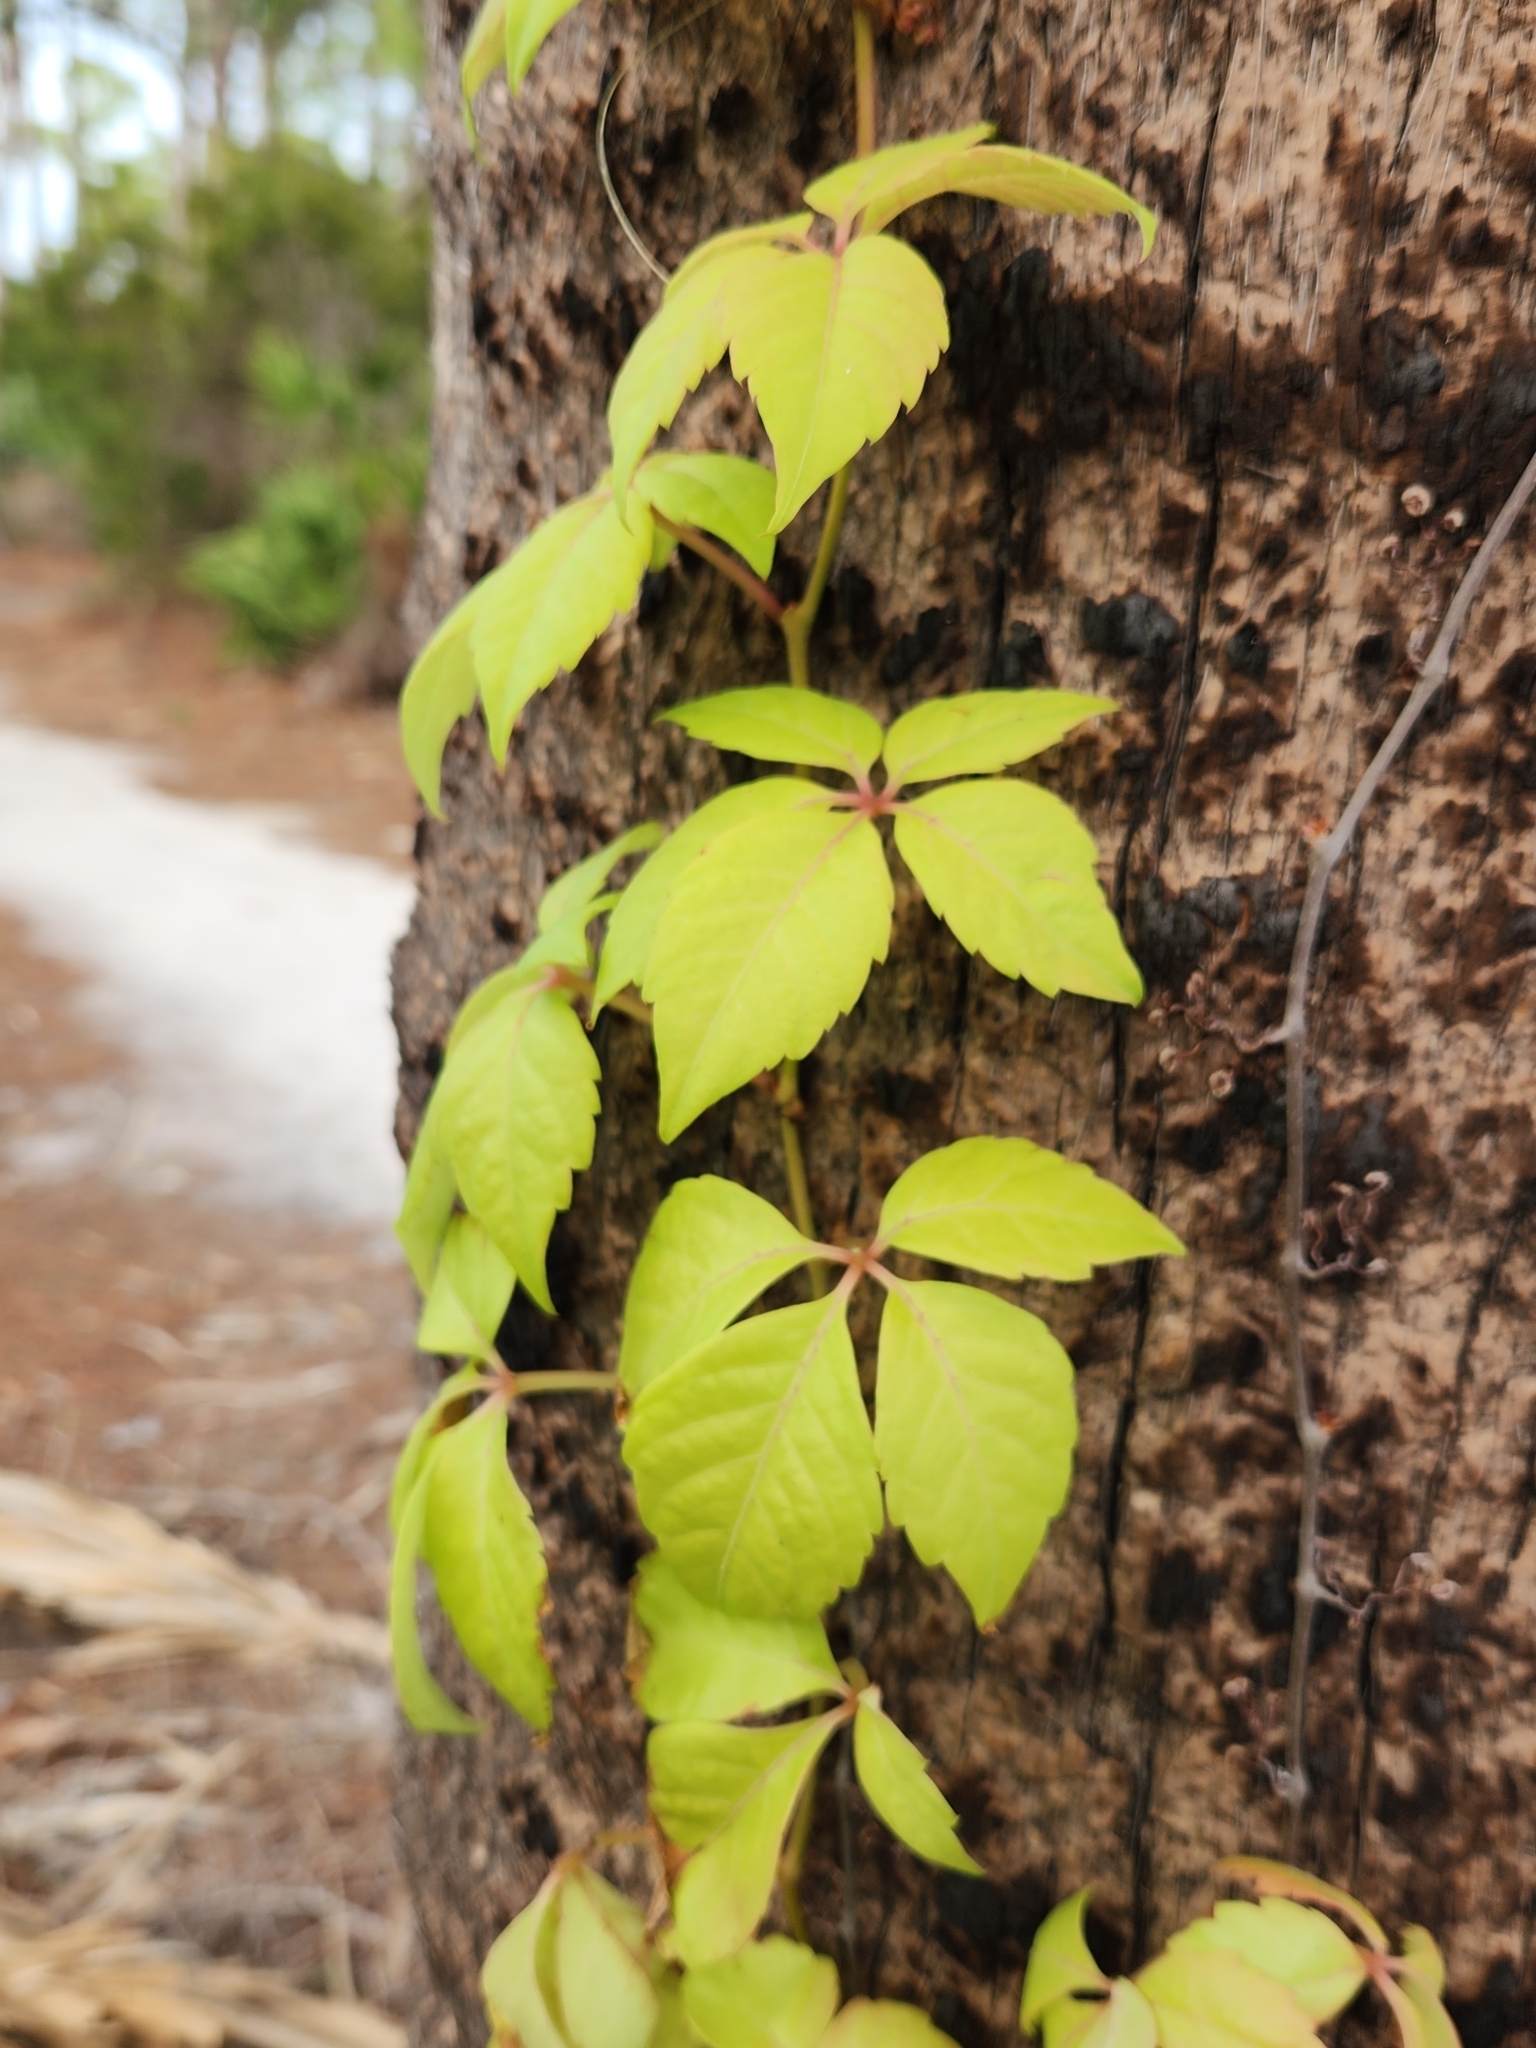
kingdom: Plantae
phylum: Tracheophyta
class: Magnoliopsida
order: Vitales
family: Vitaceae
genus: Parthenocissus
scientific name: Parthenocissus quinquefolia
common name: Virginia-creeper
